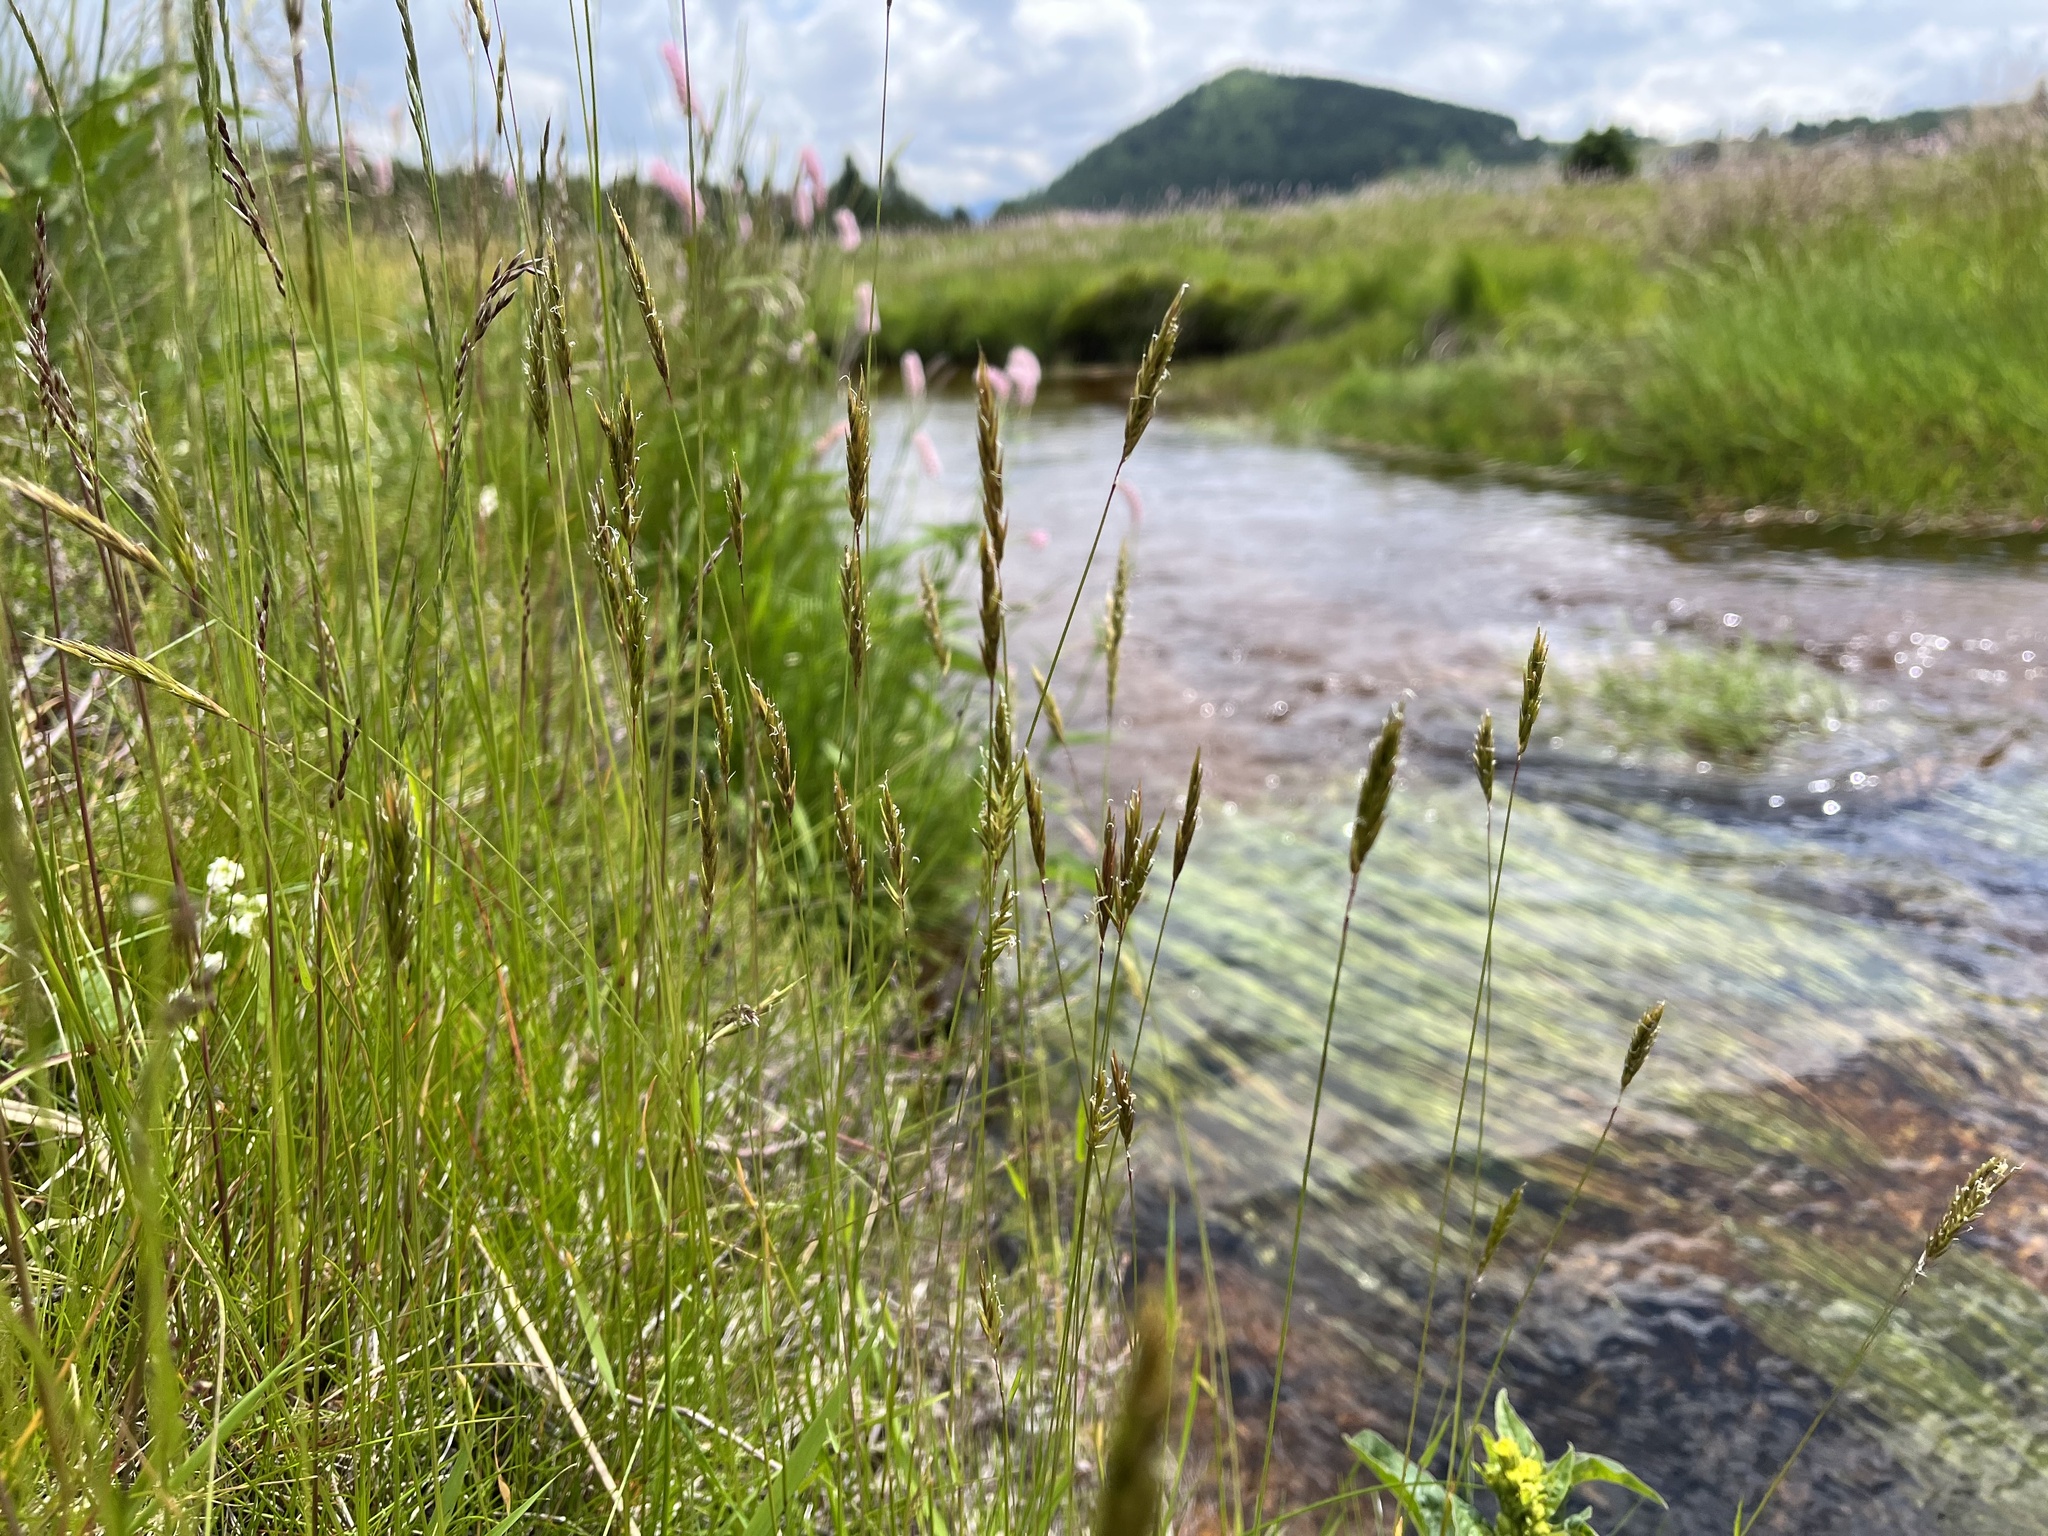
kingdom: Plantae
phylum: Tracheophyta
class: Liliopsida
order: Poales
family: Poaceae
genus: Anthoxanthum
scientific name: Anthoxanthum odoratum
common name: Sweet vernalgrass
